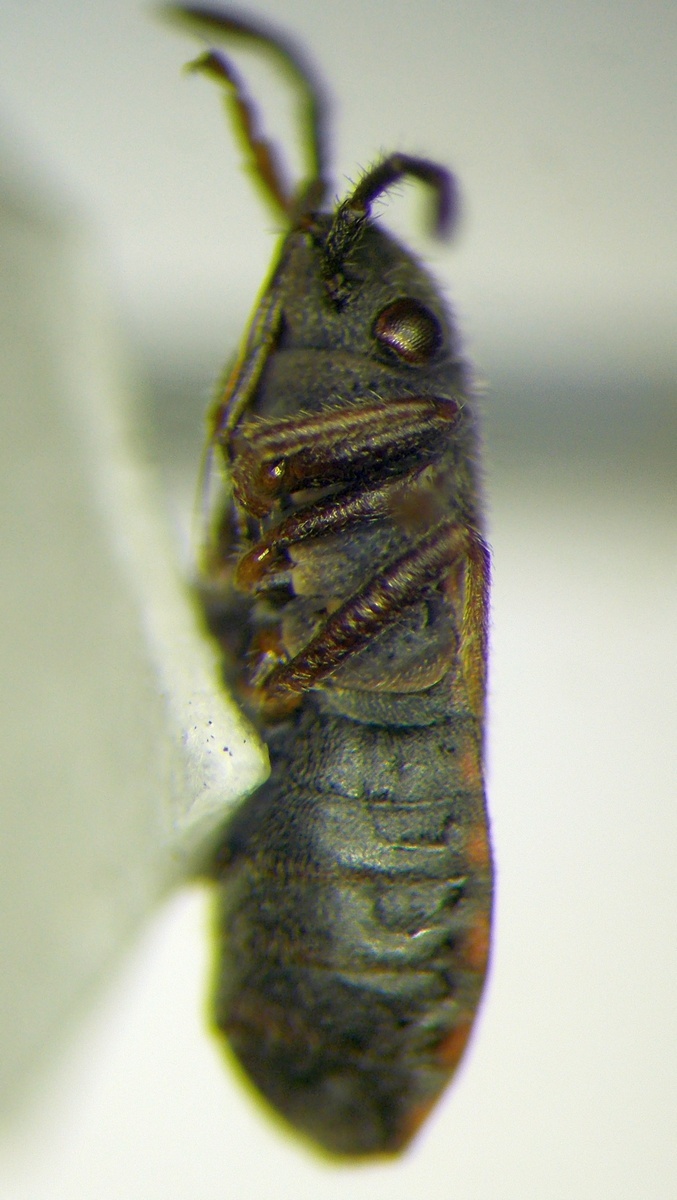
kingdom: Animalia
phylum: Arthropoda
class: Insecta
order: Hemiptera
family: Lygaeidae
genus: Lygaeosoma
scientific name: Lygaeosoma sardeum
